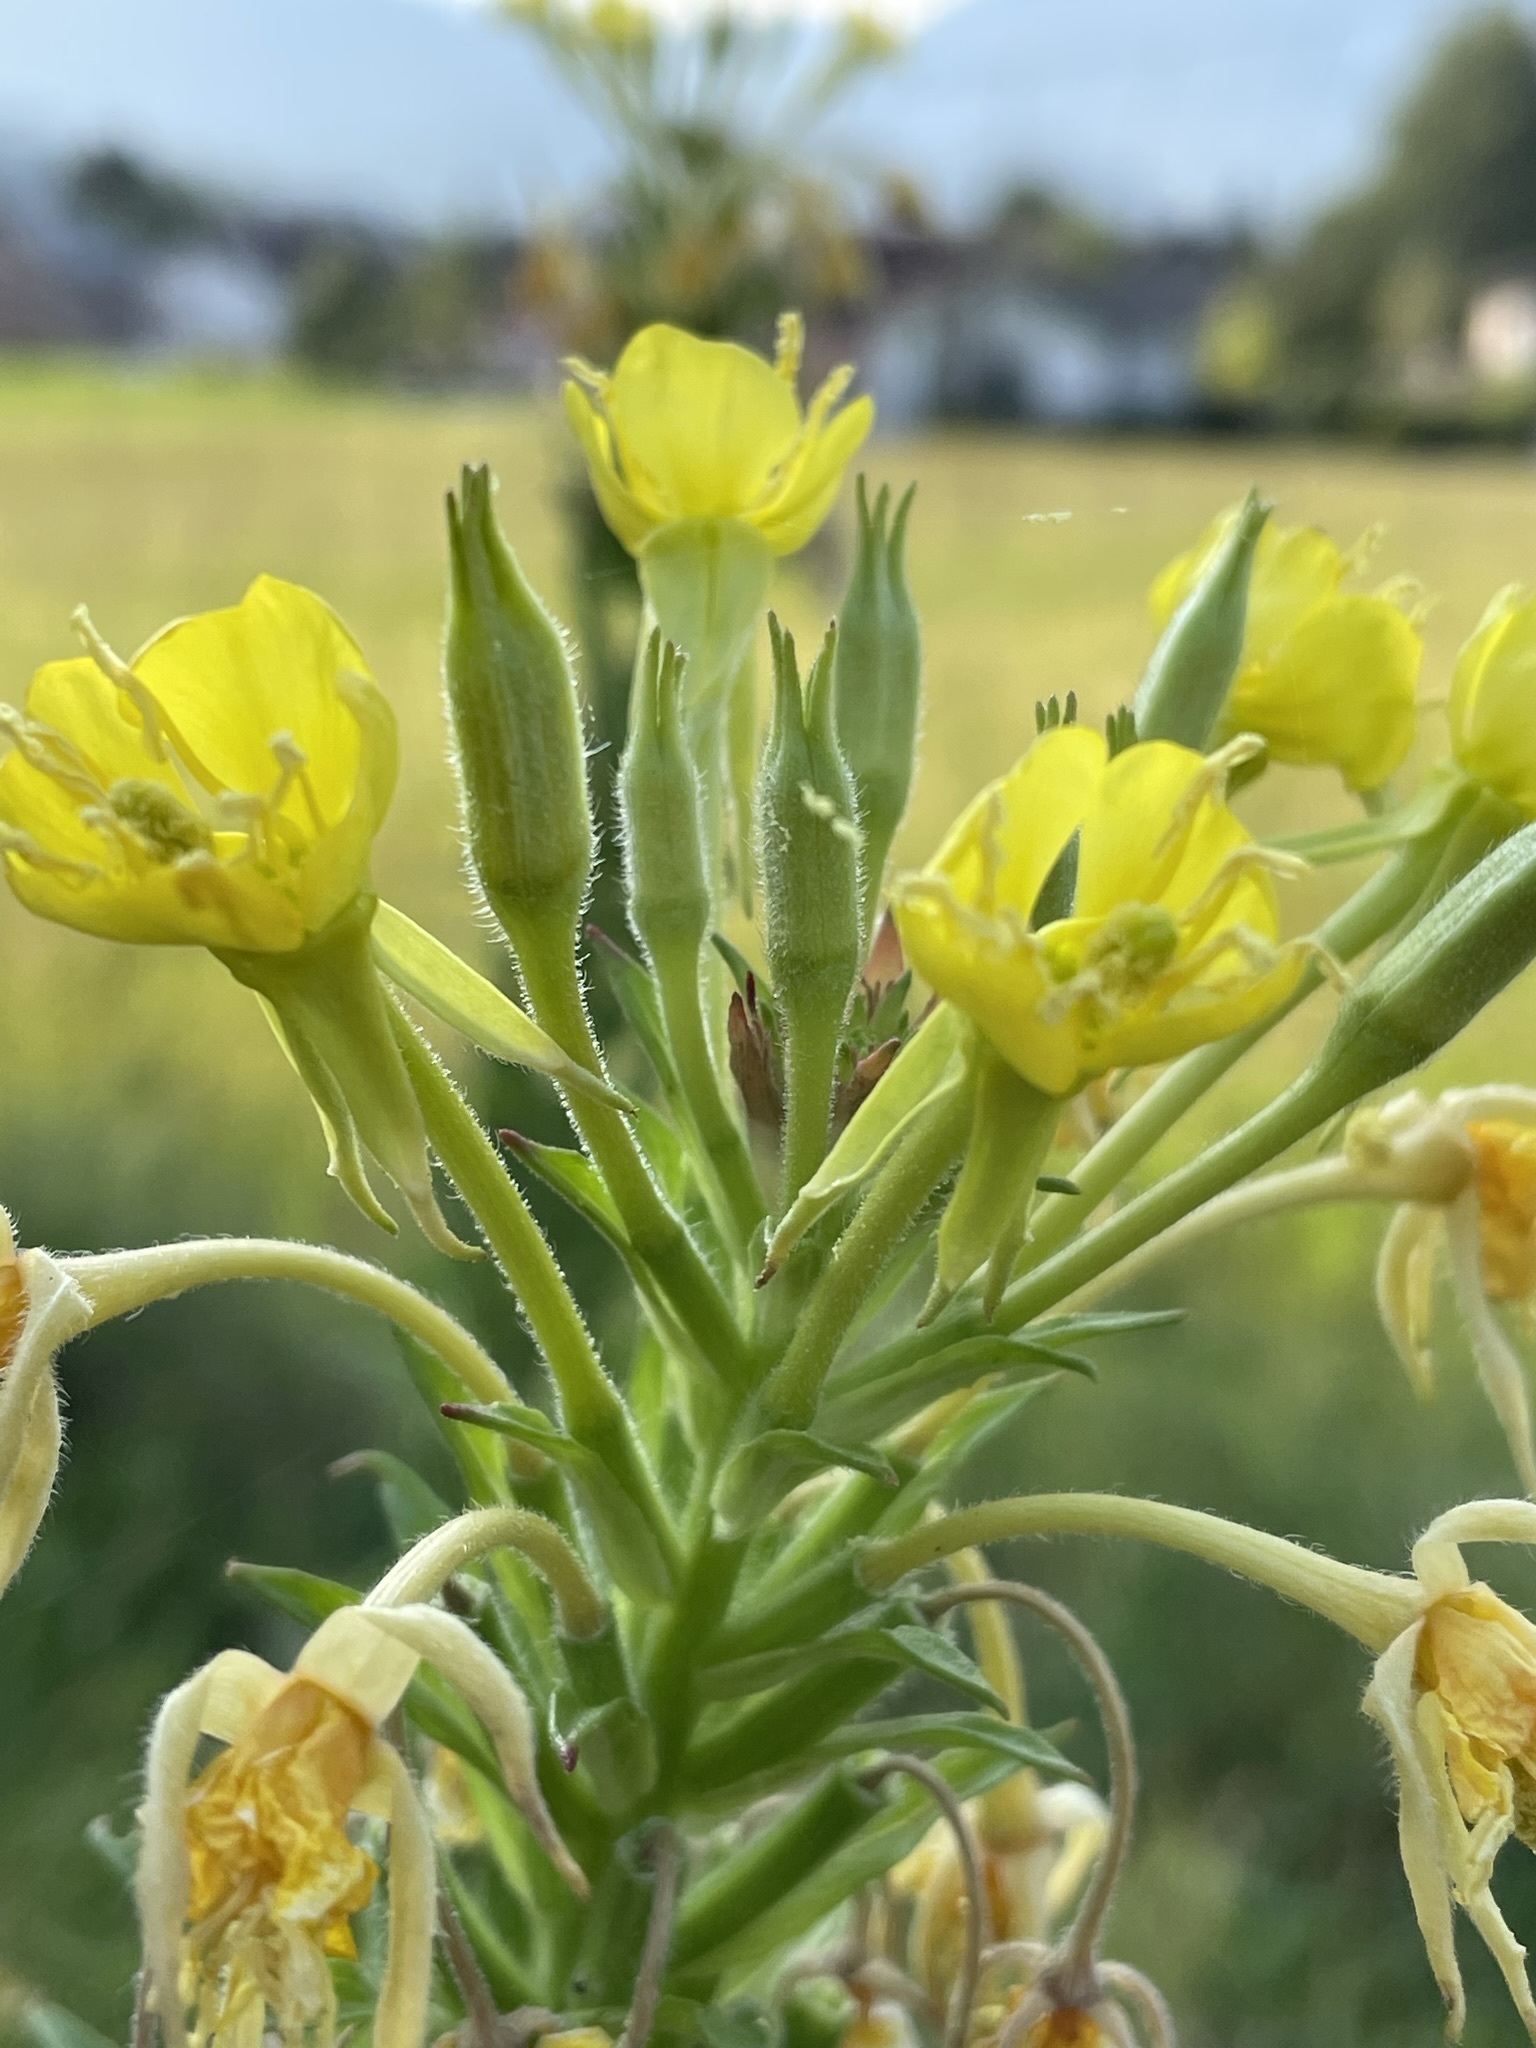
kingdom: Plantae
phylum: Tracheophyta
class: Magnoliopsida
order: Myrtales
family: Onagraceae
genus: Oenothera
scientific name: Oenothera parviflora
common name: Least evening-primrose
